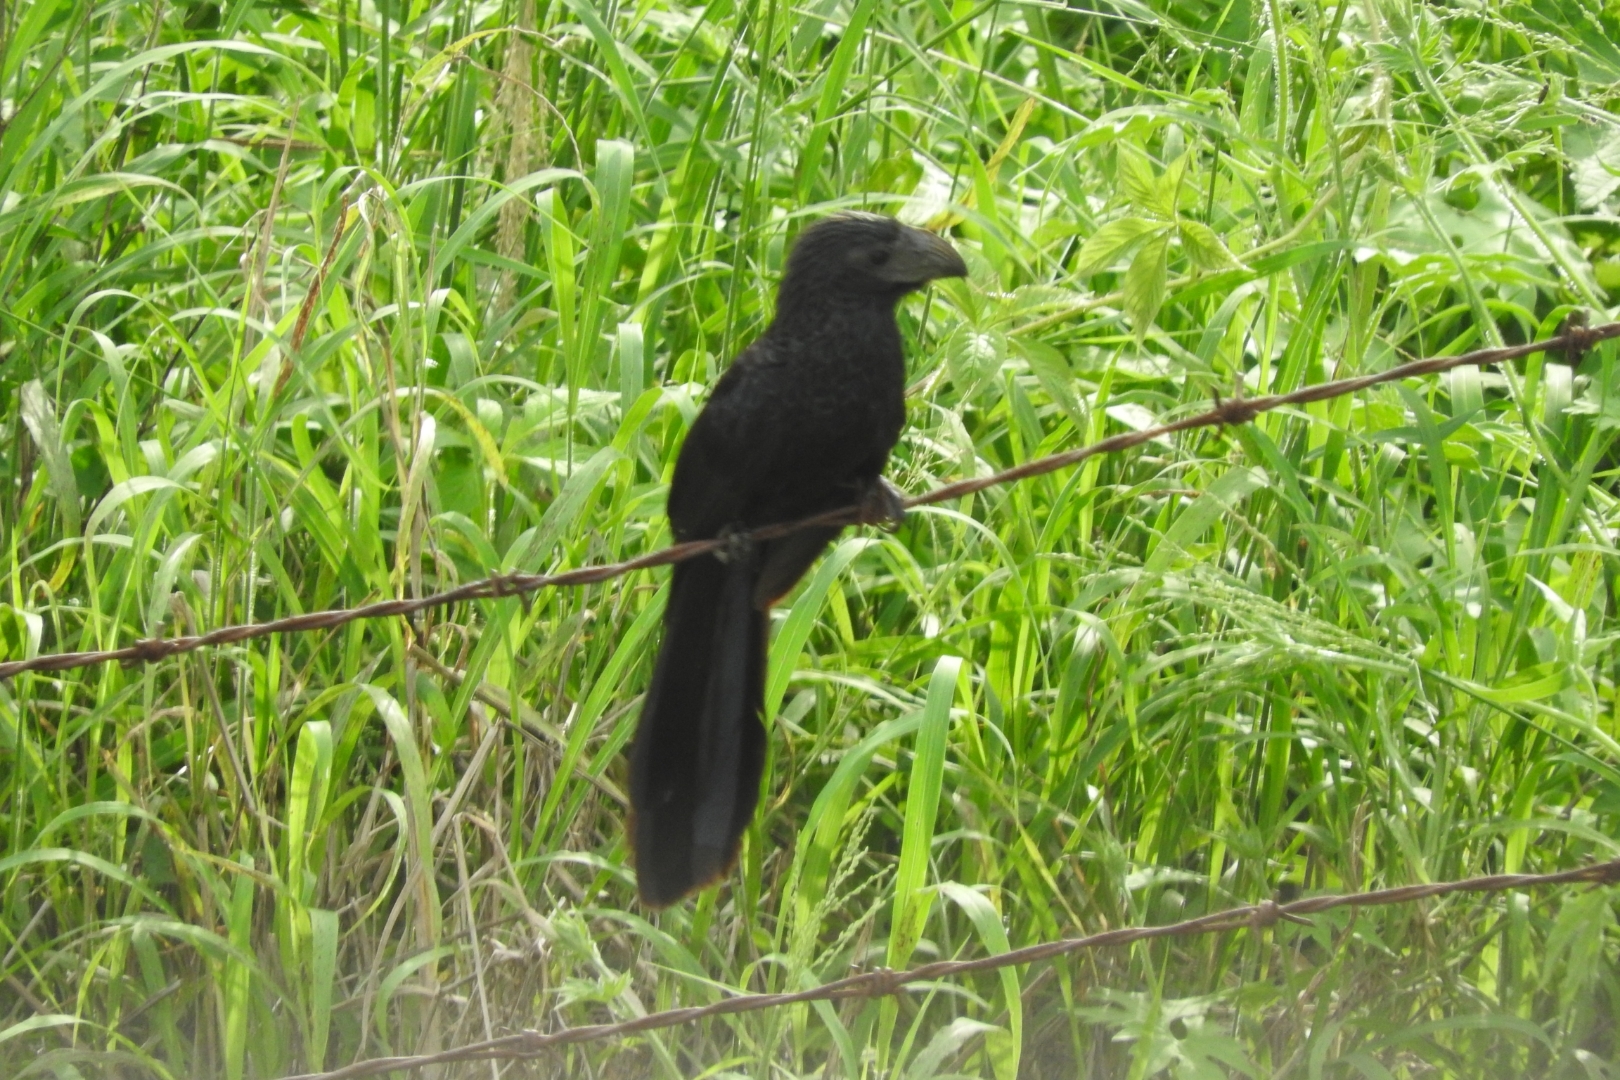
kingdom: Animalia
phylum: Chordata
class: Aves
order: Cuculiformes
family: Cuculidae
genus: Crotophaga
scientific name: Crotophaga sulcirostris
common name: Groove-billed ani
